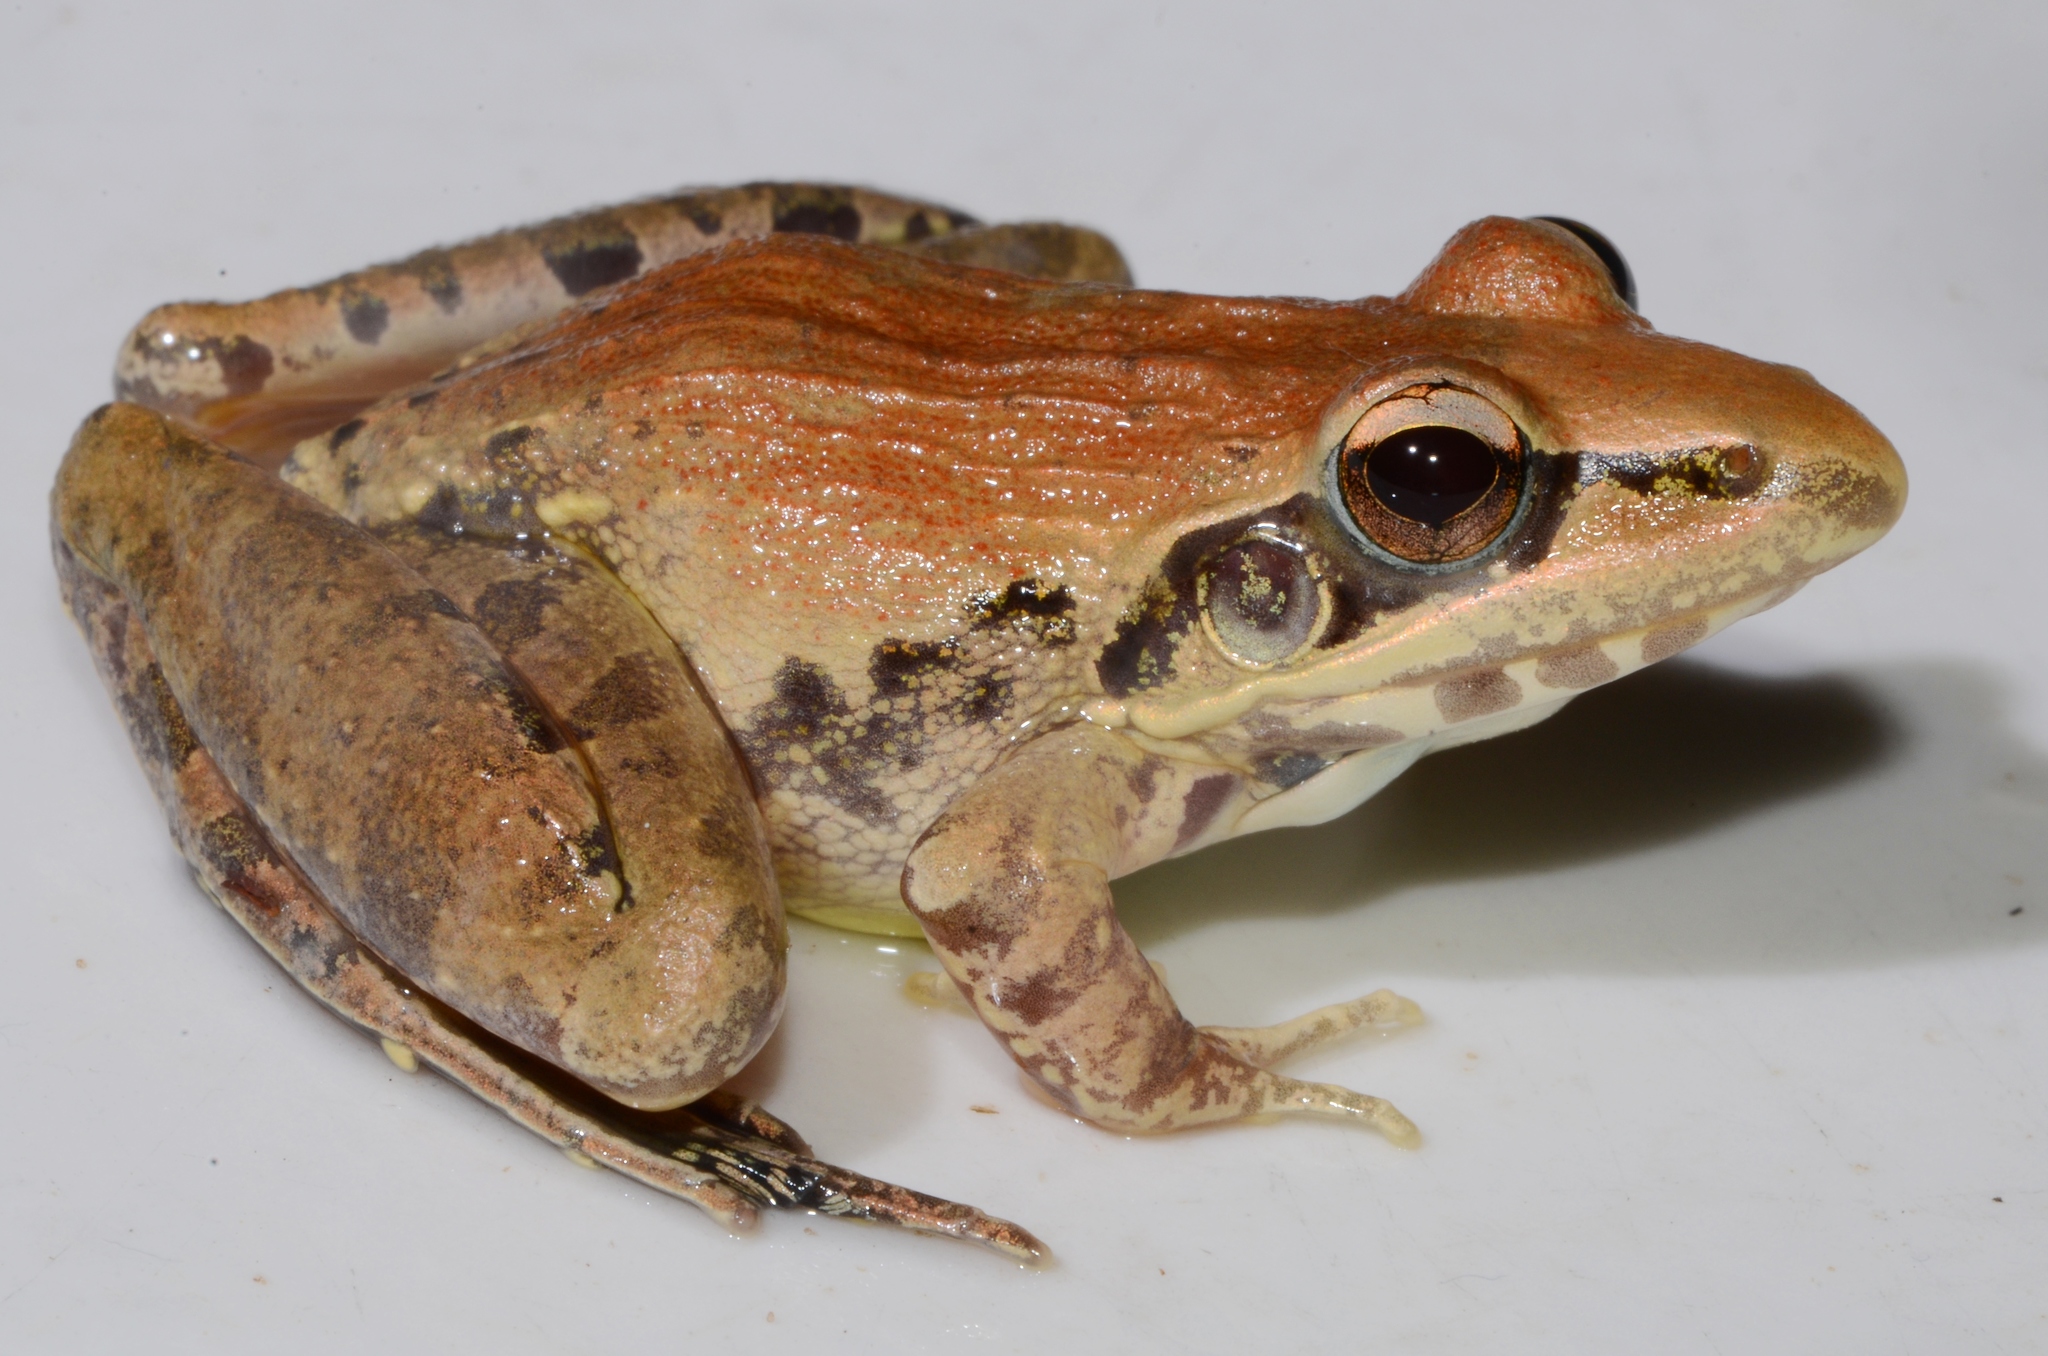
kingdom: Animalia
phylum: Chordata
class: Amphibia
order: Anura
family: Ptychadenidae
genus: Ptychadena
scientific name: Ptychadena anchietae
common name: Anchieta's ridged frog
